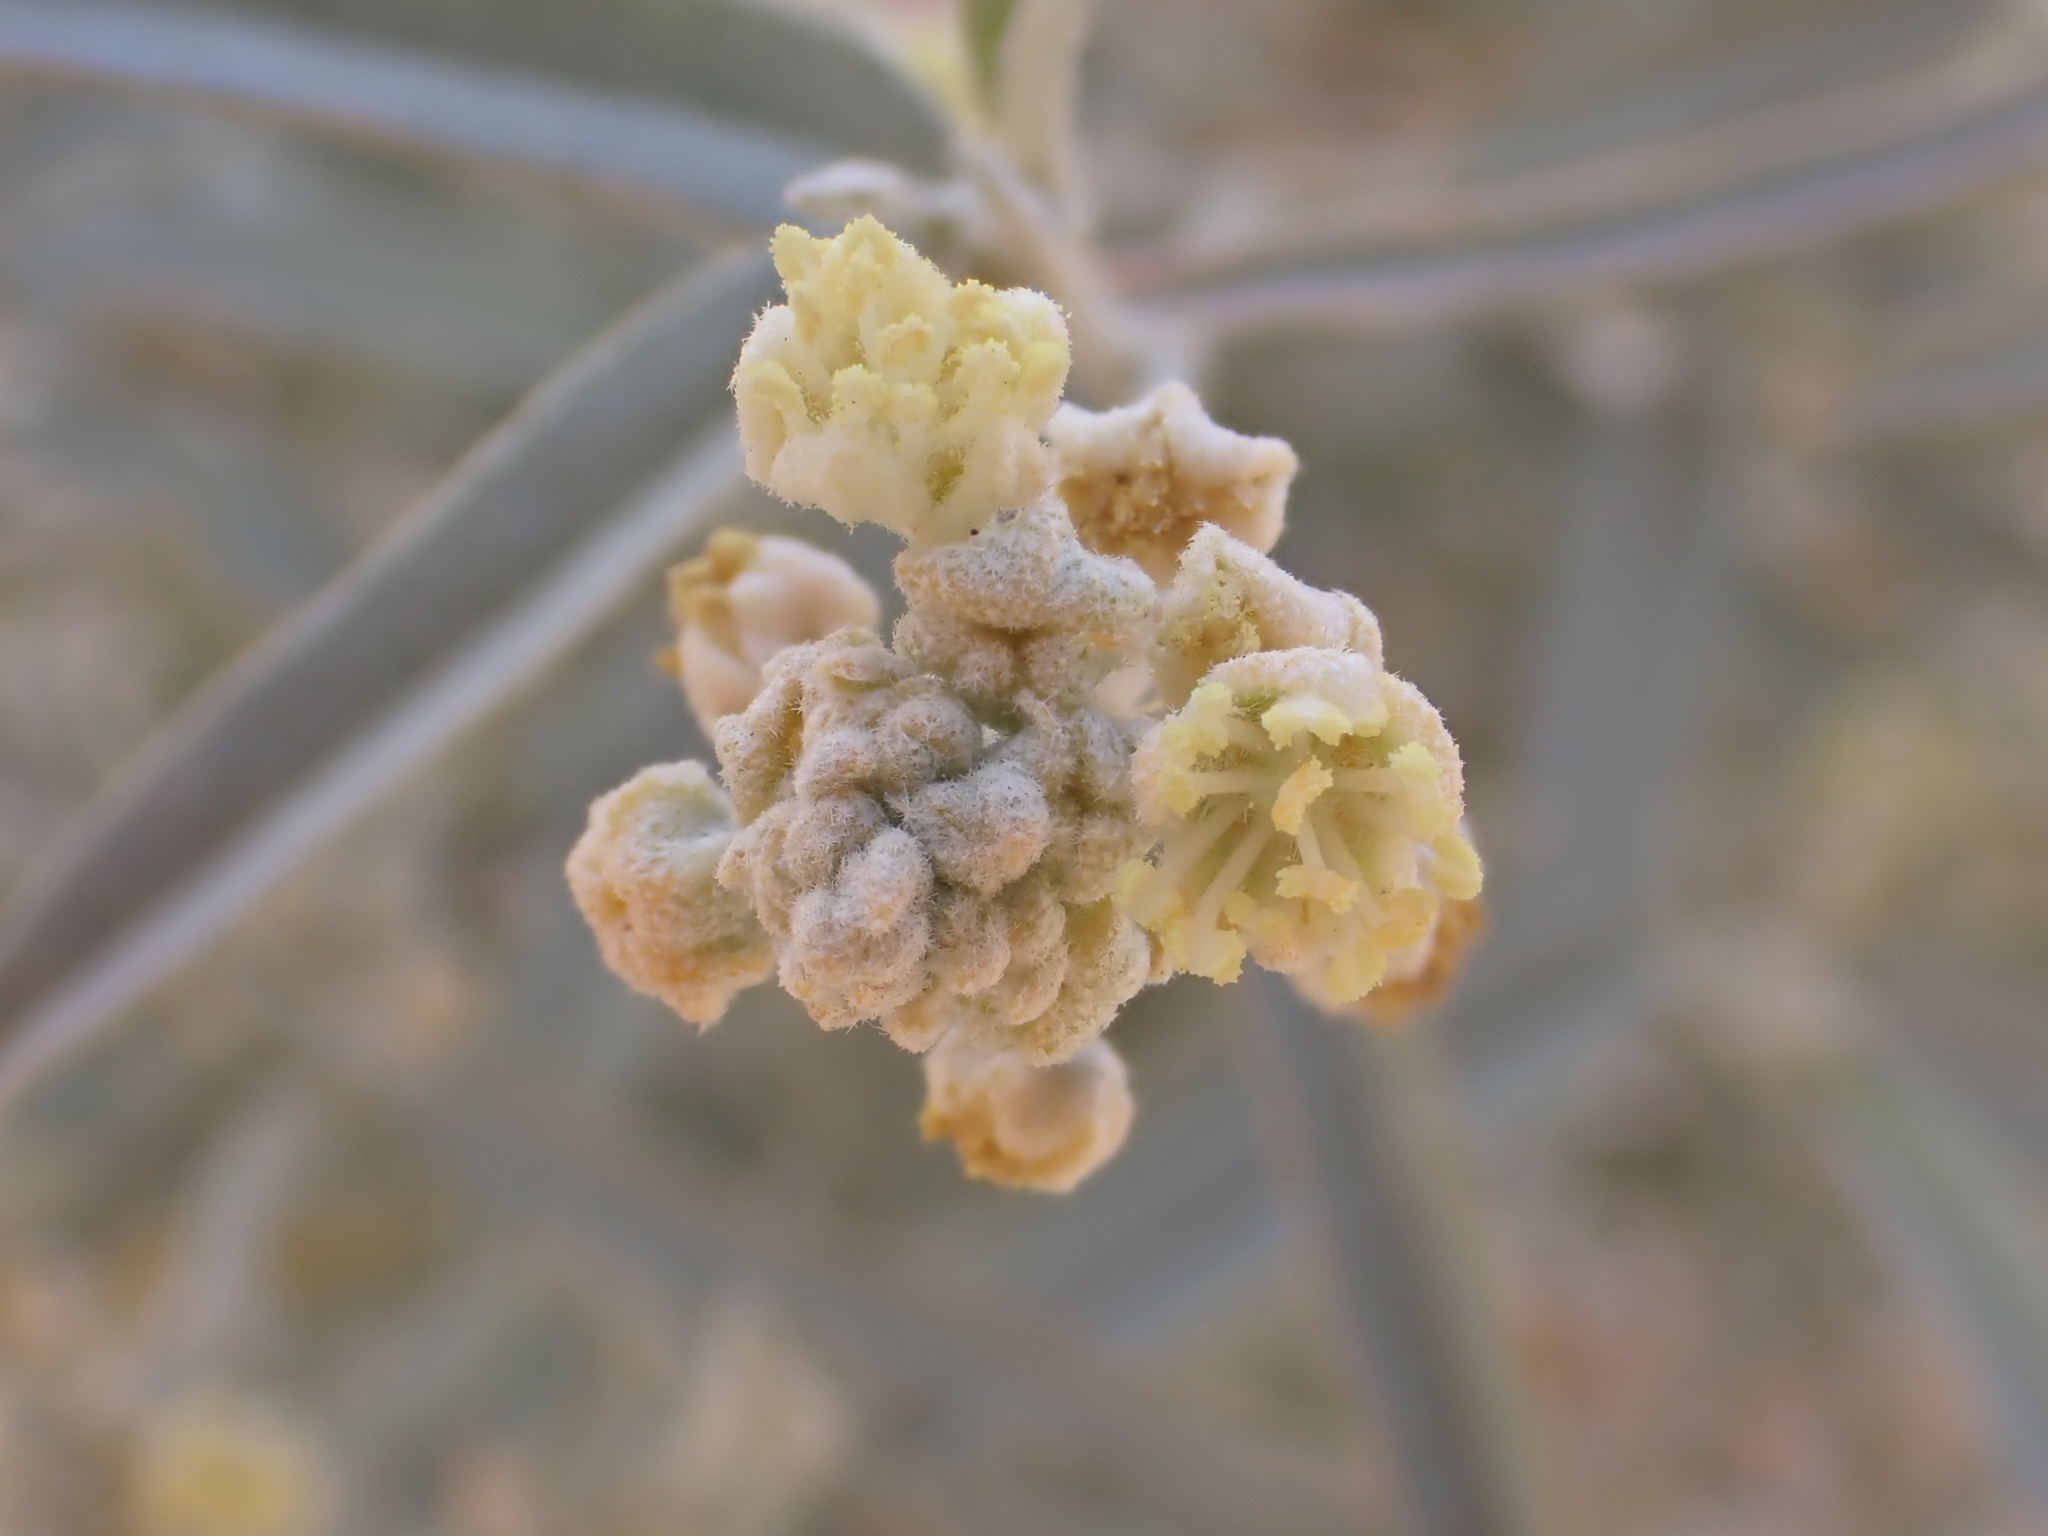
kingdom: Plantae
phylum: Tracheophyta
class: Magnoliopsida
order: Malpighiales
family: Euphorbiaceae
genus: Croton
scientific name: Croton wigginsii
